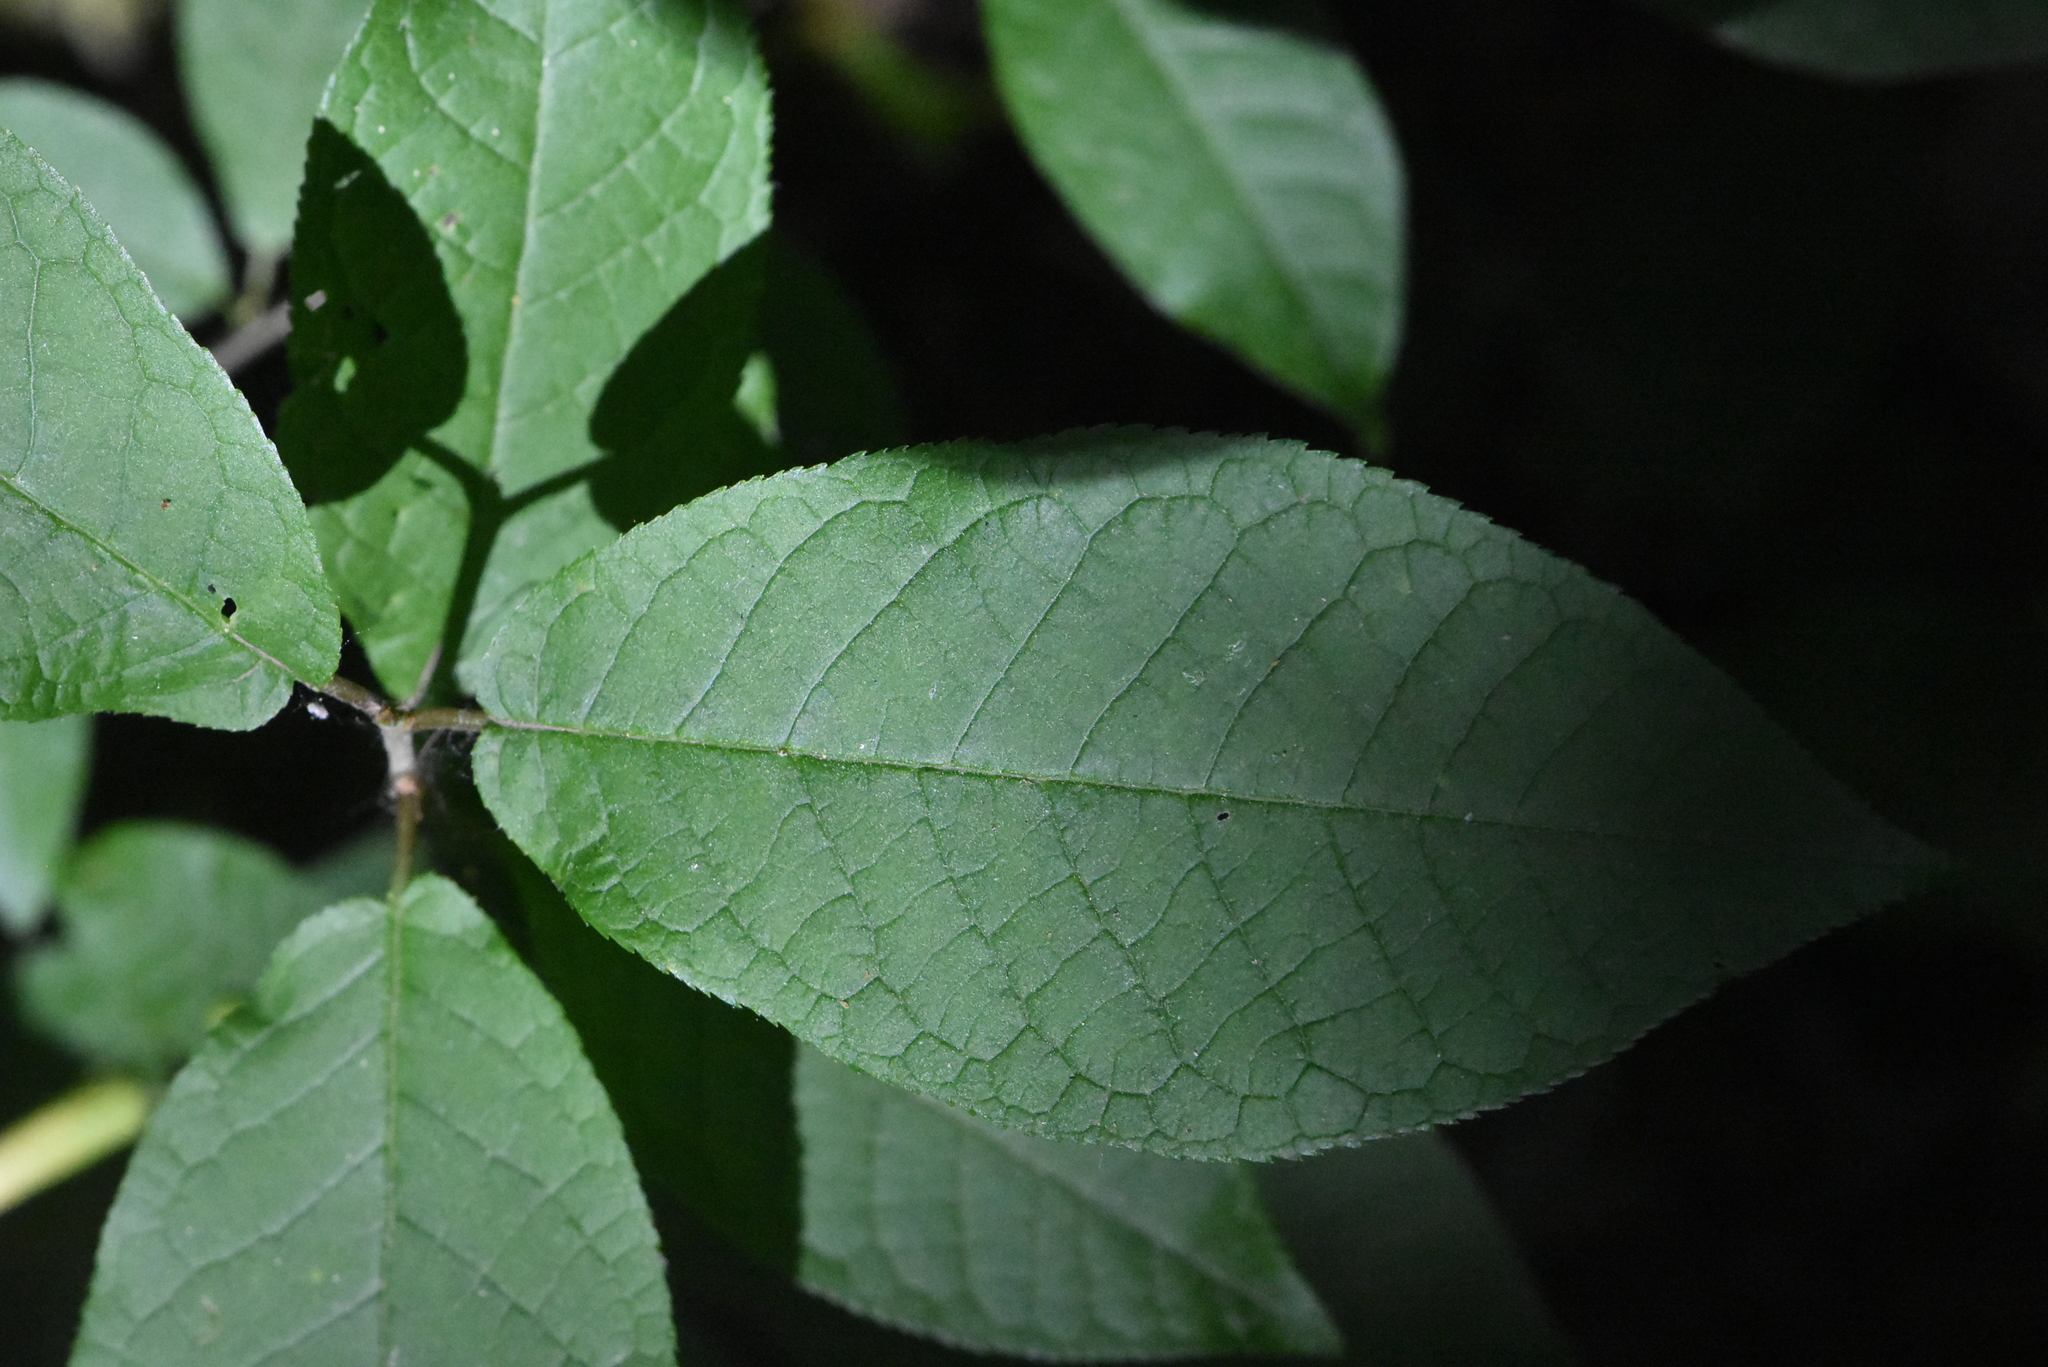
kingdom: Plantae
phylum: Tracheophyta
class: Magnoliopsida
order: Rosales
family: Rosaceae
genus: Prunus
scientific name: Prunus padus
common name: Bird cherry
